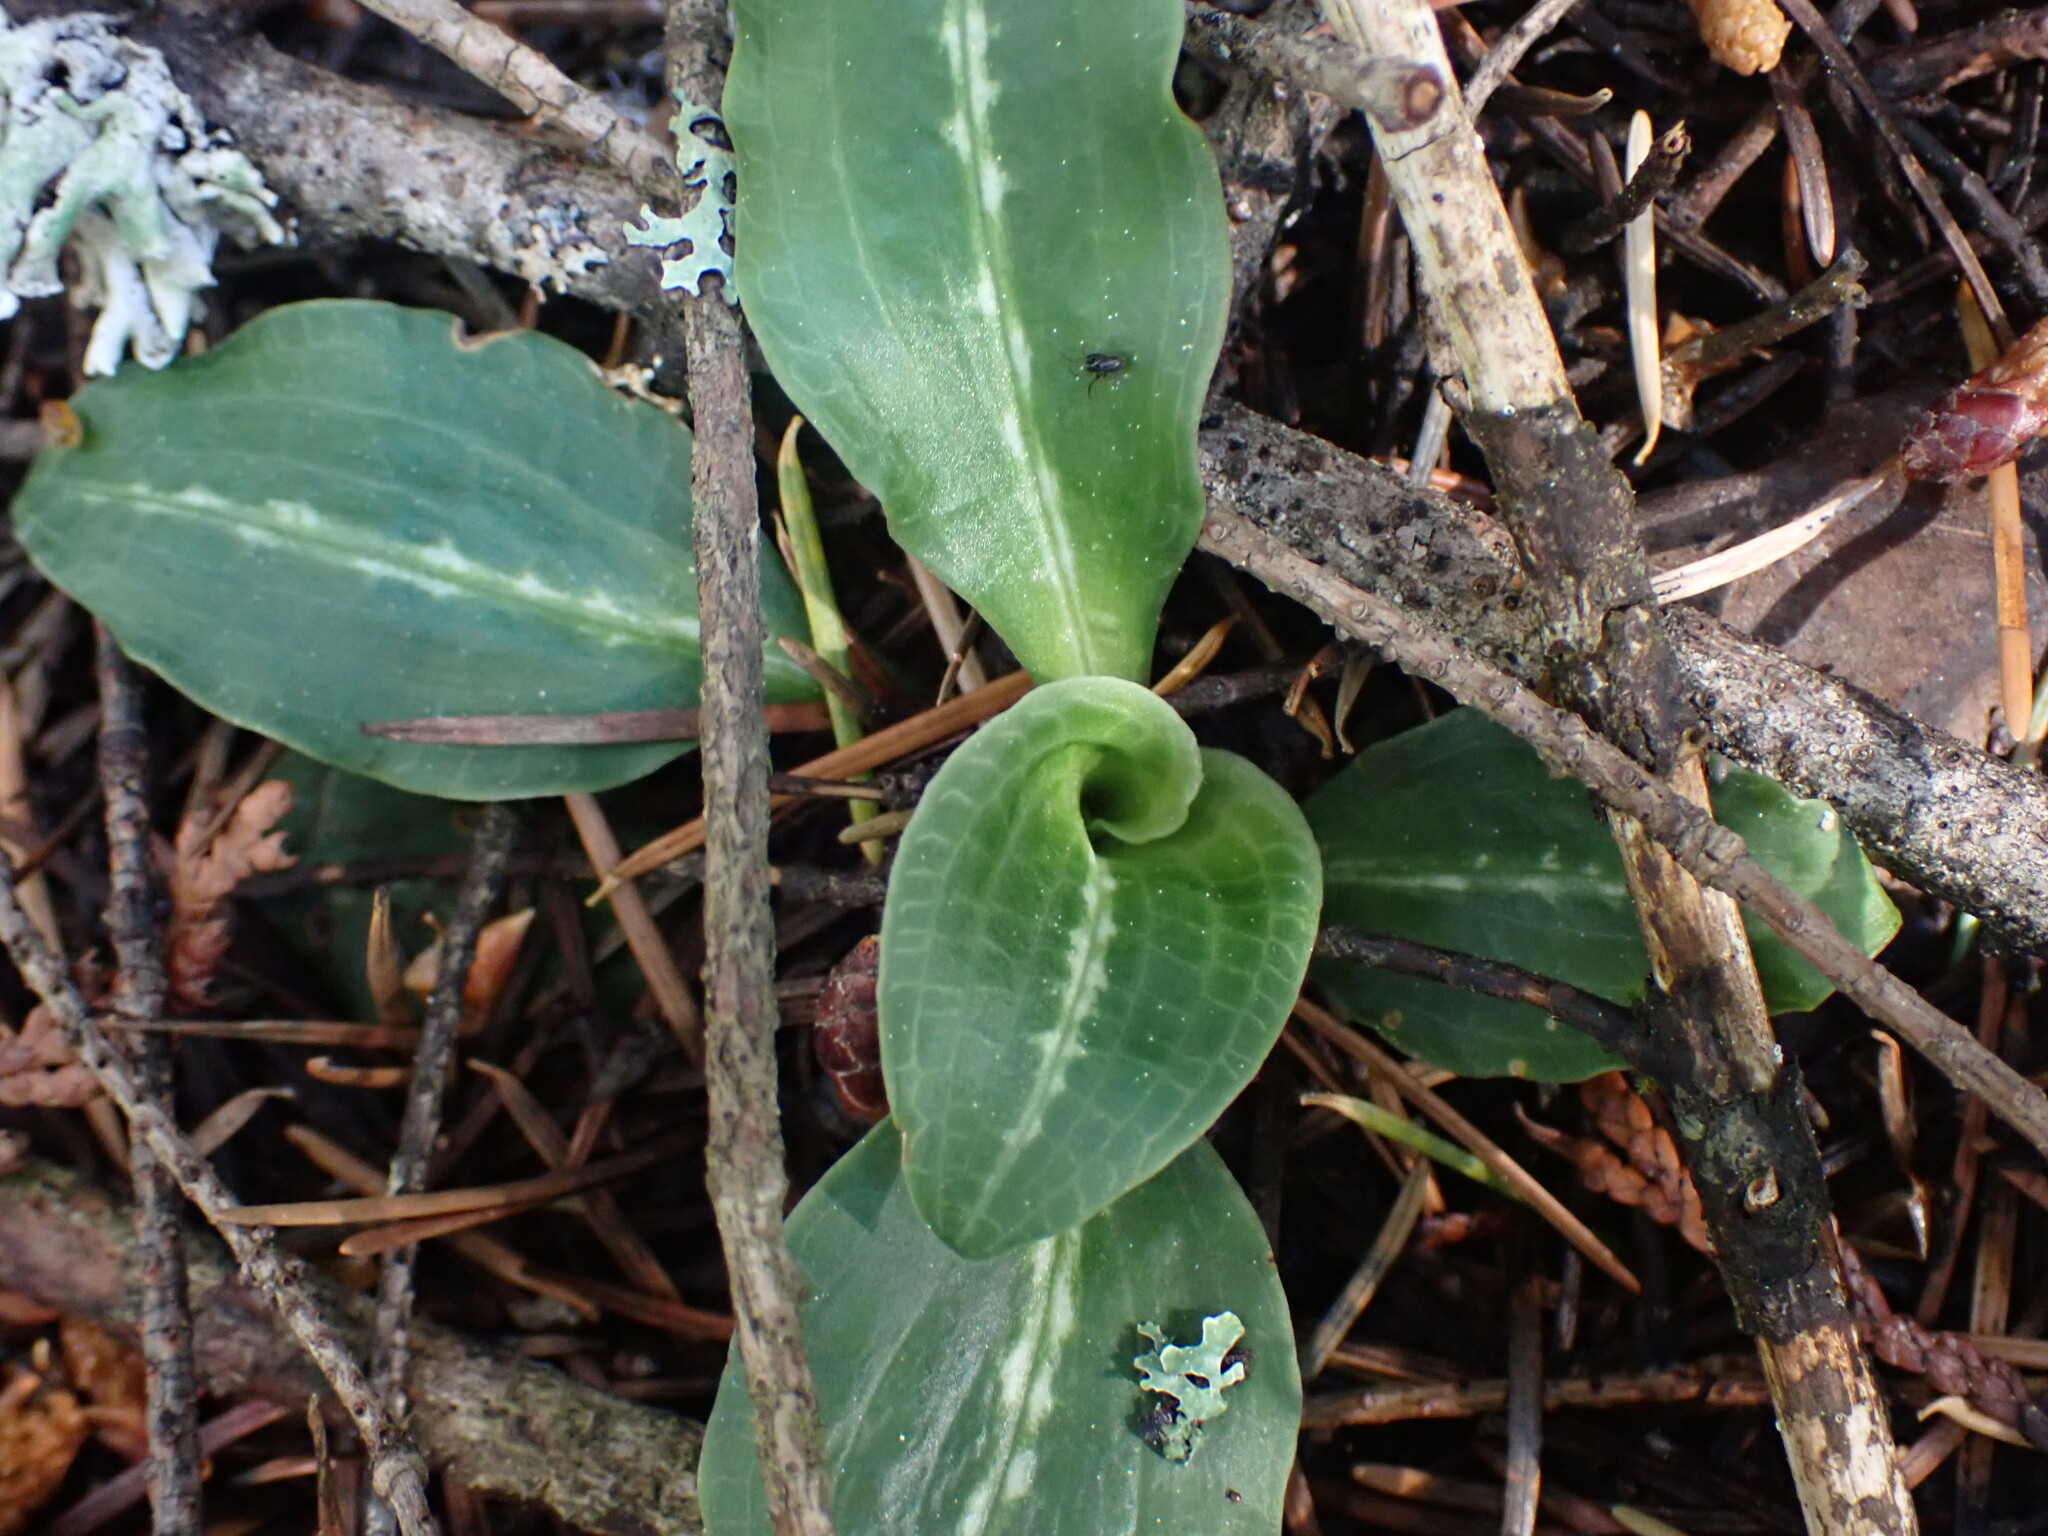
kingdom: Plantae
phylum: Tracheophyta
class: Liliopsida
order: Asparagales
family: Orchidaceae
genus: Goodyera
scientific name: Goodyera oblongifolia
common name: Giant rattlesnake-plantain
